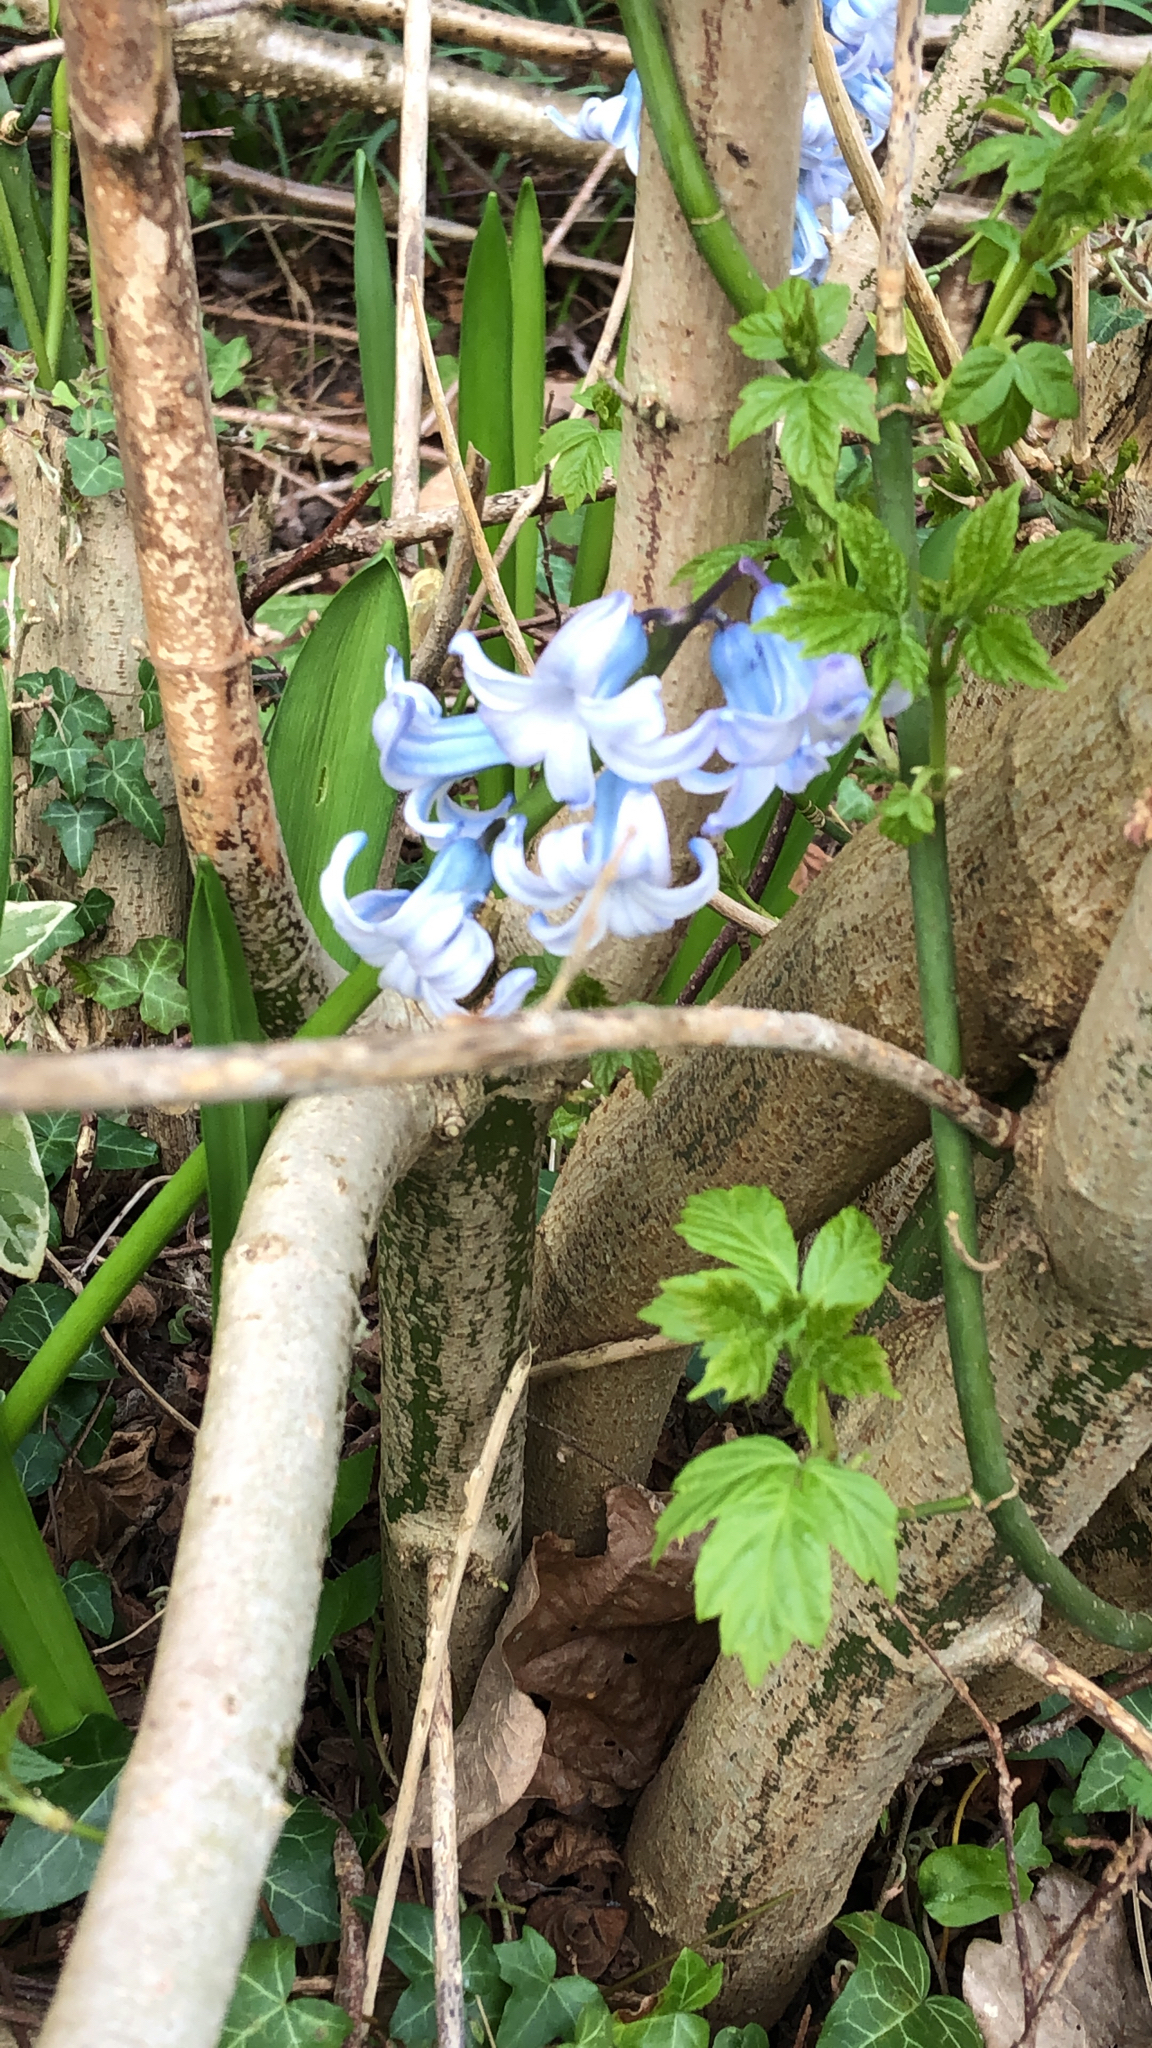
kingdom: Plantae
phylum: Tracheophyta
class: Liliopsida
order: Asparagales
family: Asparagaceae
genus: Hyacinthus
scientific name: Hyacinthus orientalis
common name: Hyacinth
